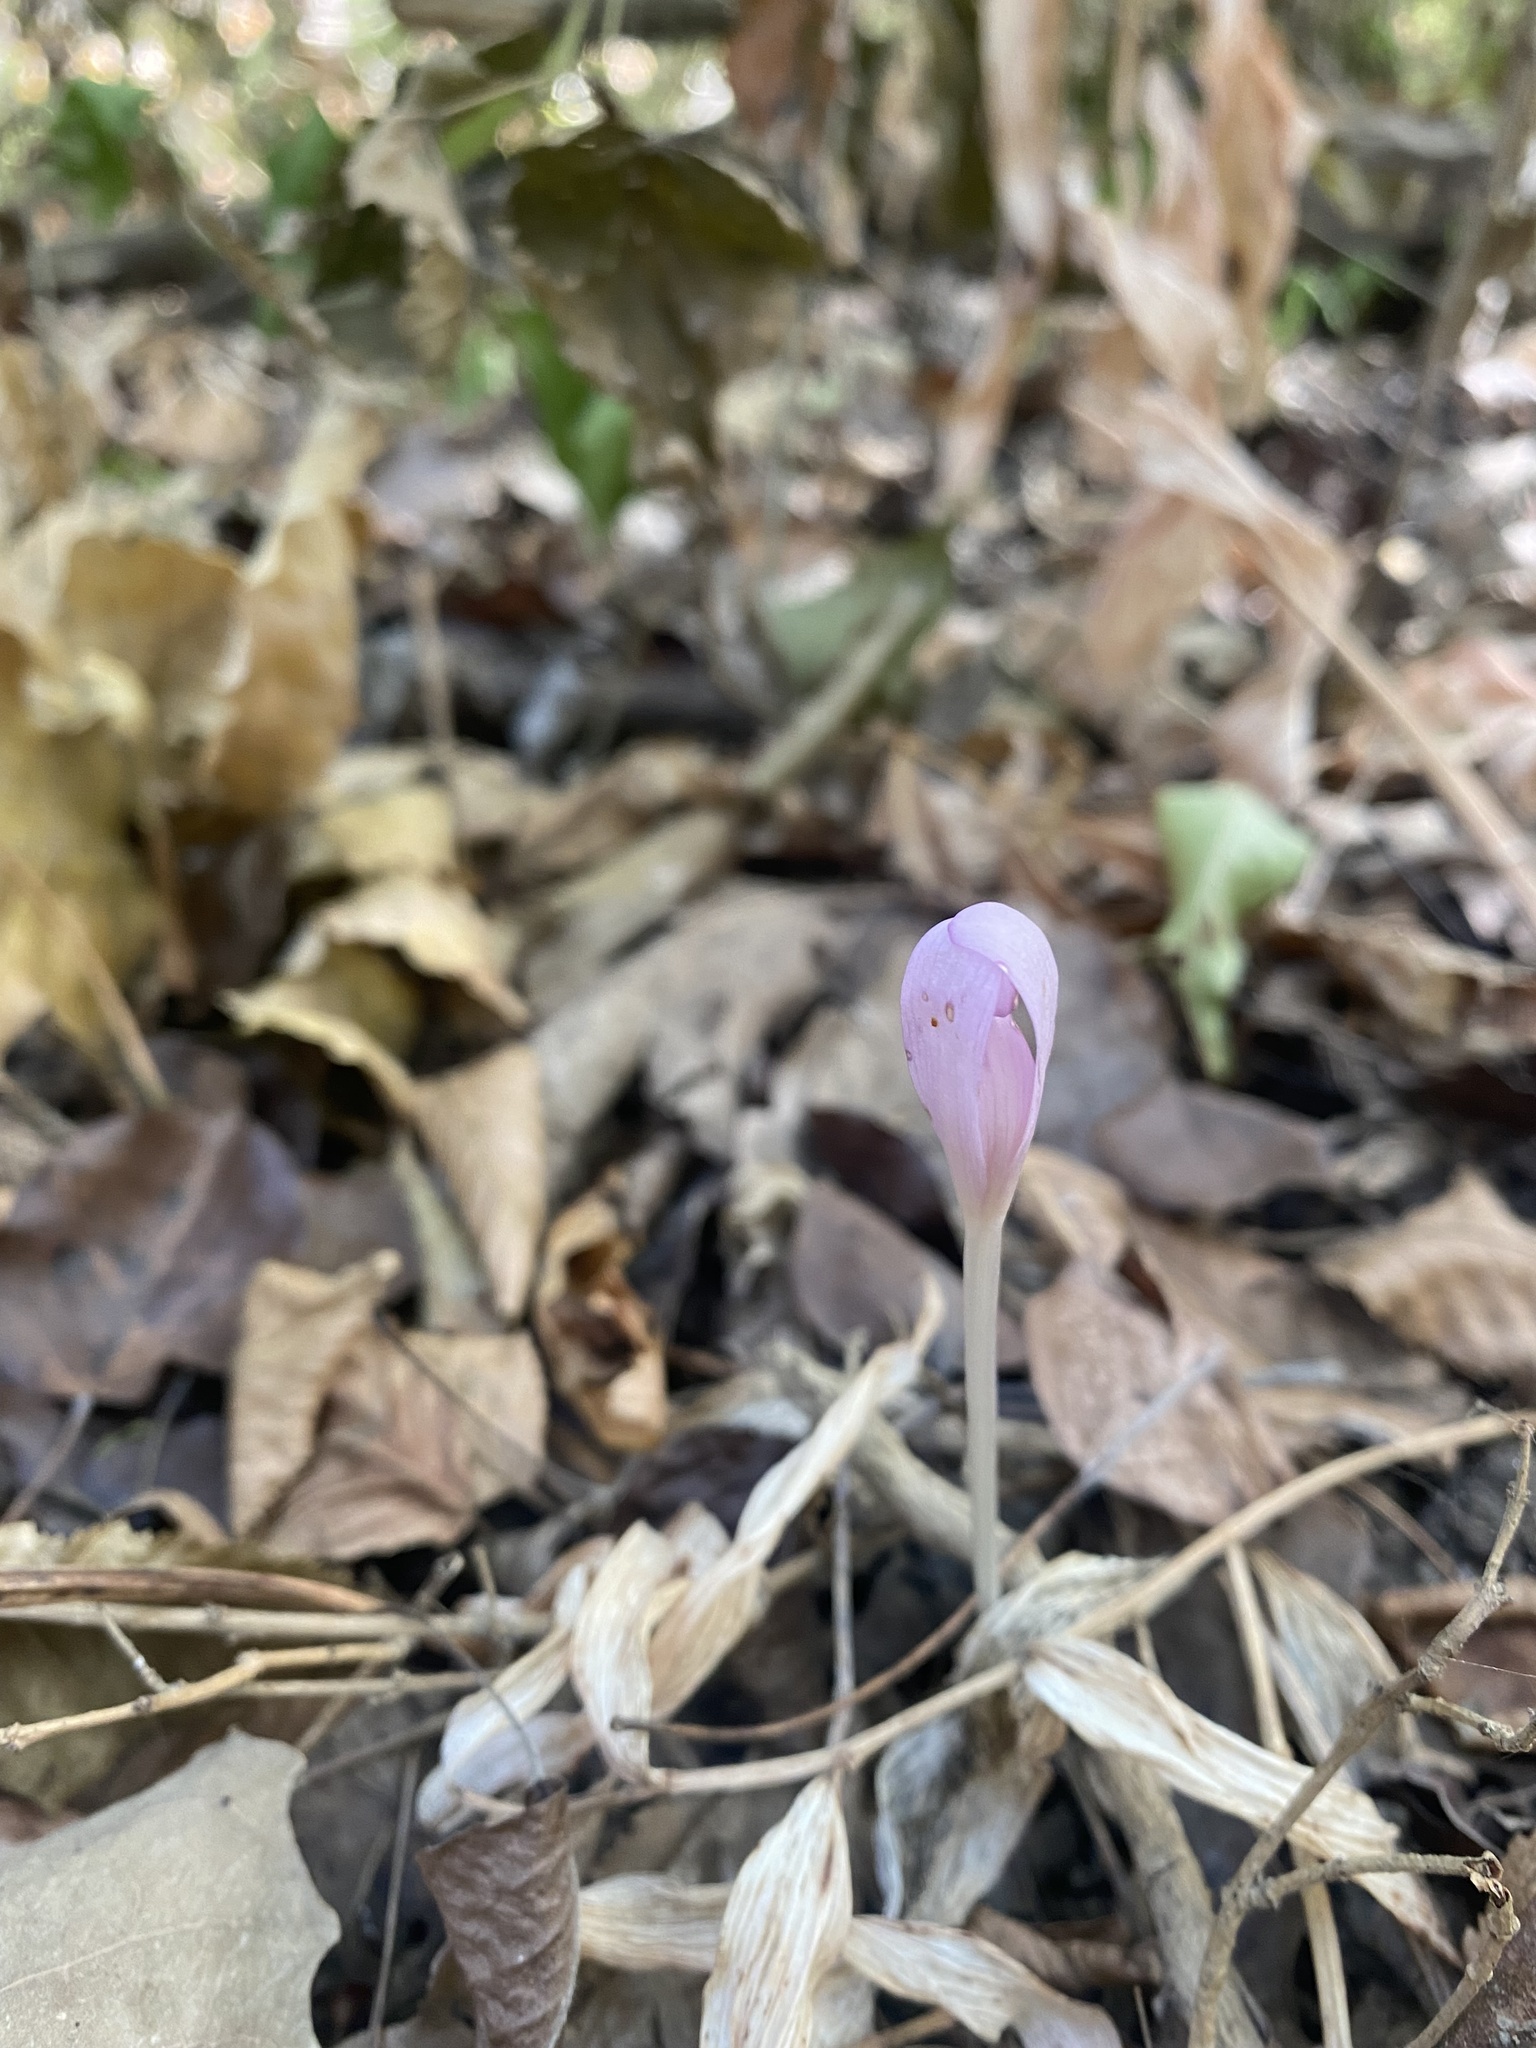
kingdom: Plantae
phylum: Tracheophyta
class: Liliopsida
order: Liliales
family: Colchicaceae
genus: Colchicum
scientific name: Colchicum umbrosum
